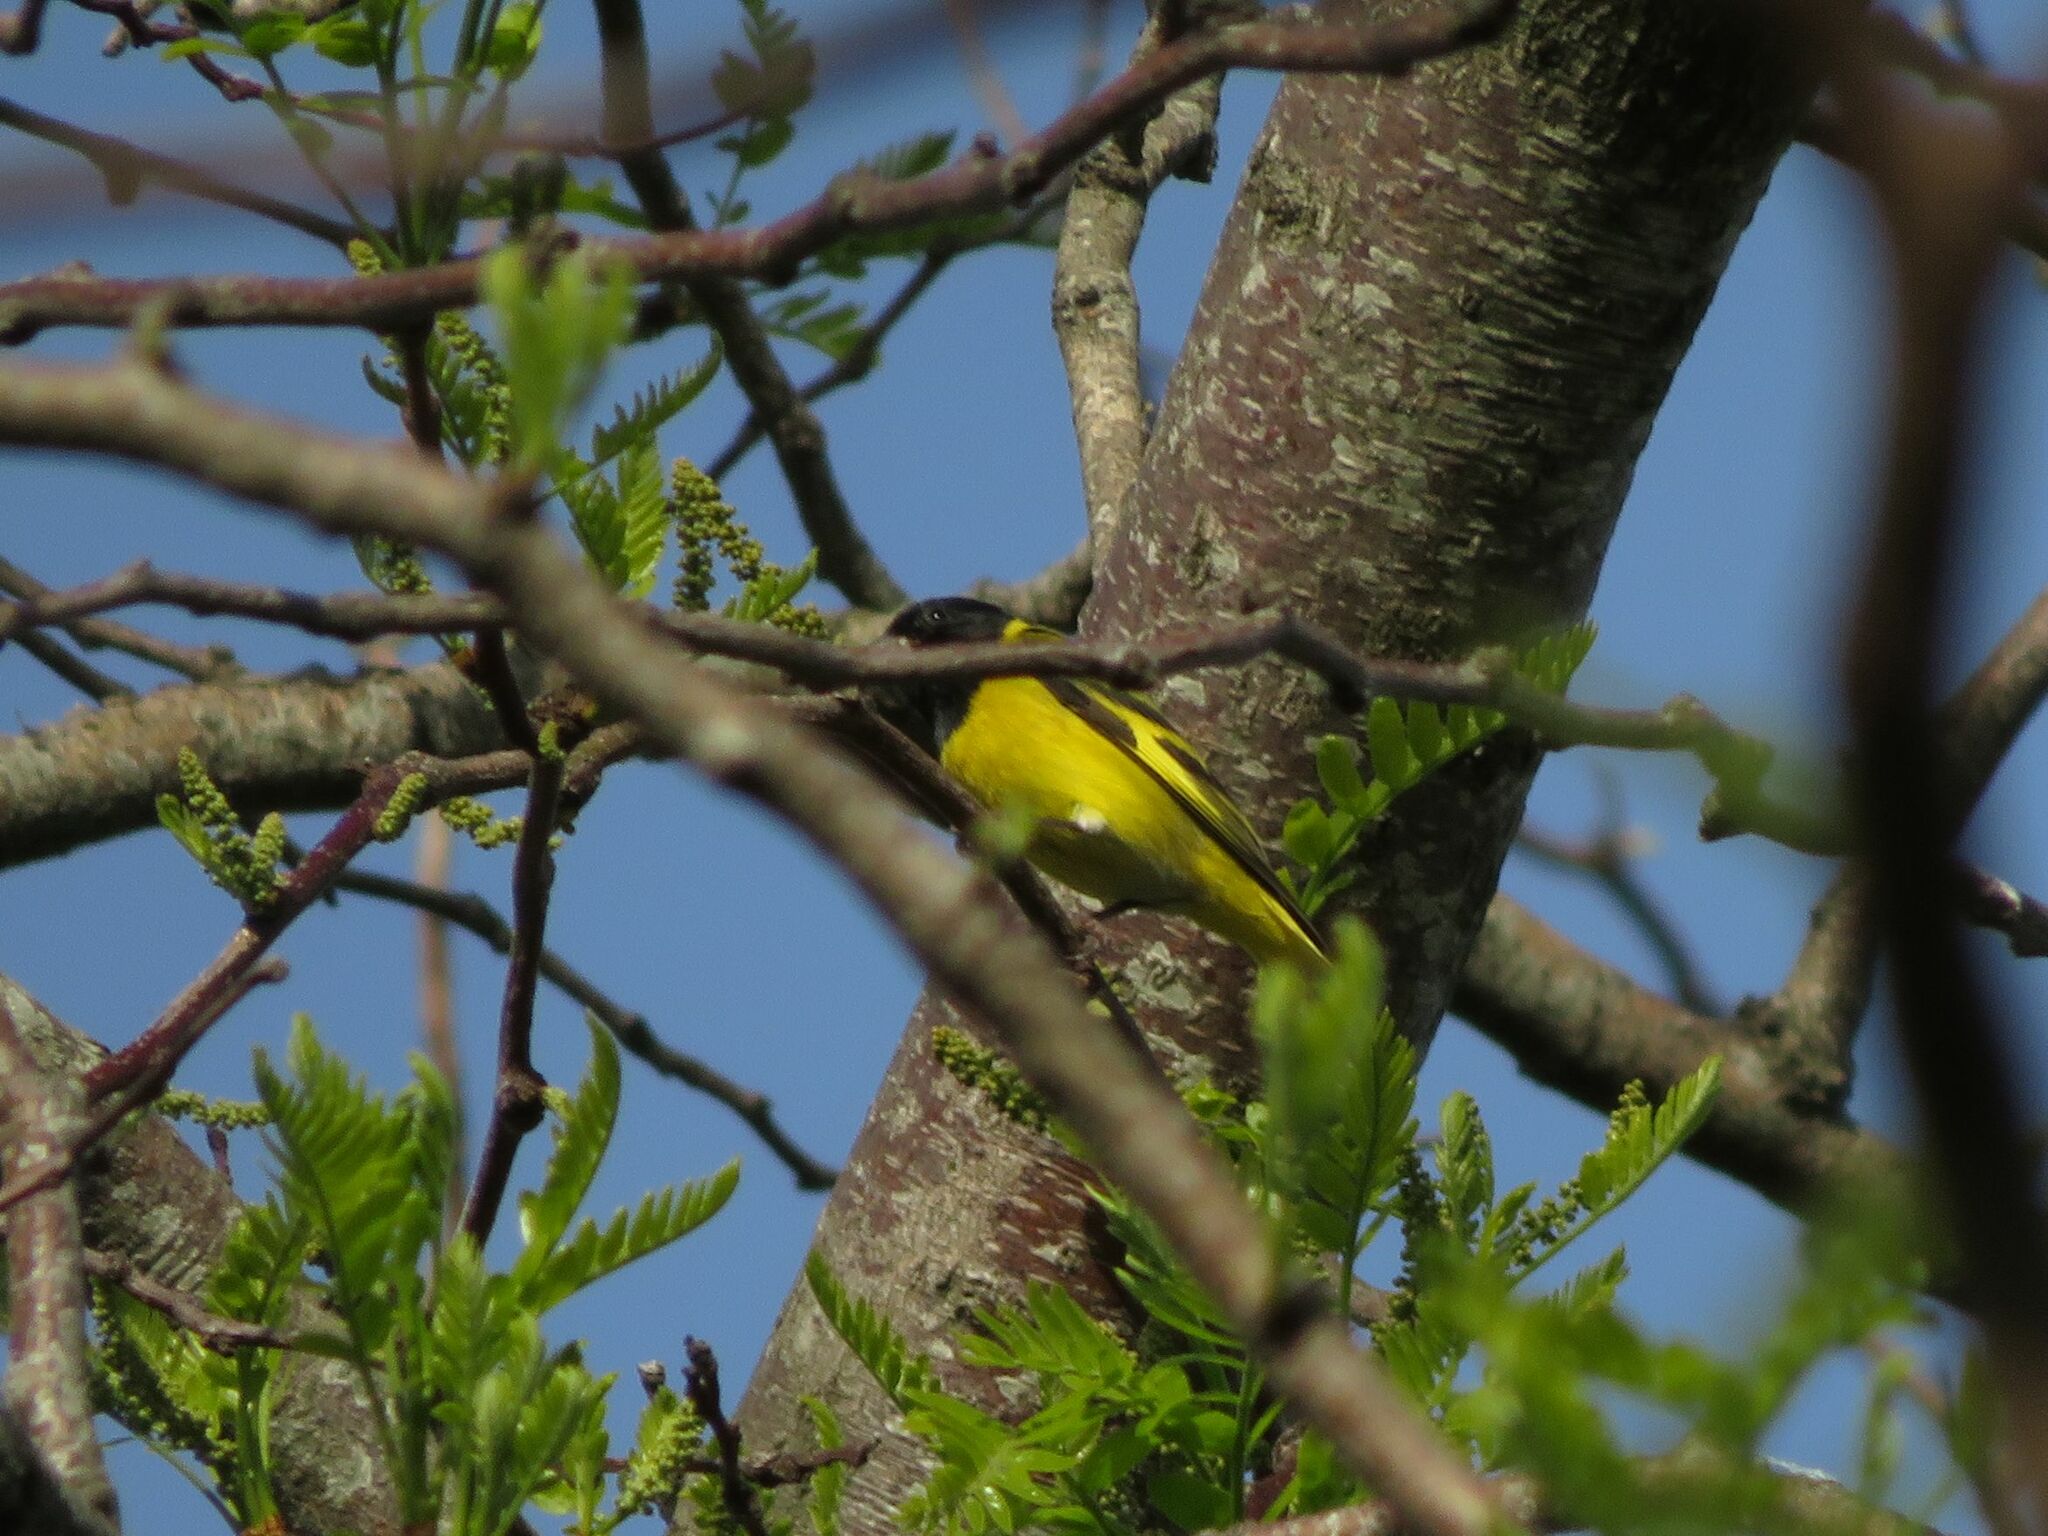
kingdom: Animalia
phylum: Chordata
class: Aves
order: Passeriformes
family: Fringillidae
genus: Spinus
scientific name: Spinus magellanicus
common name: Hooded siskin
